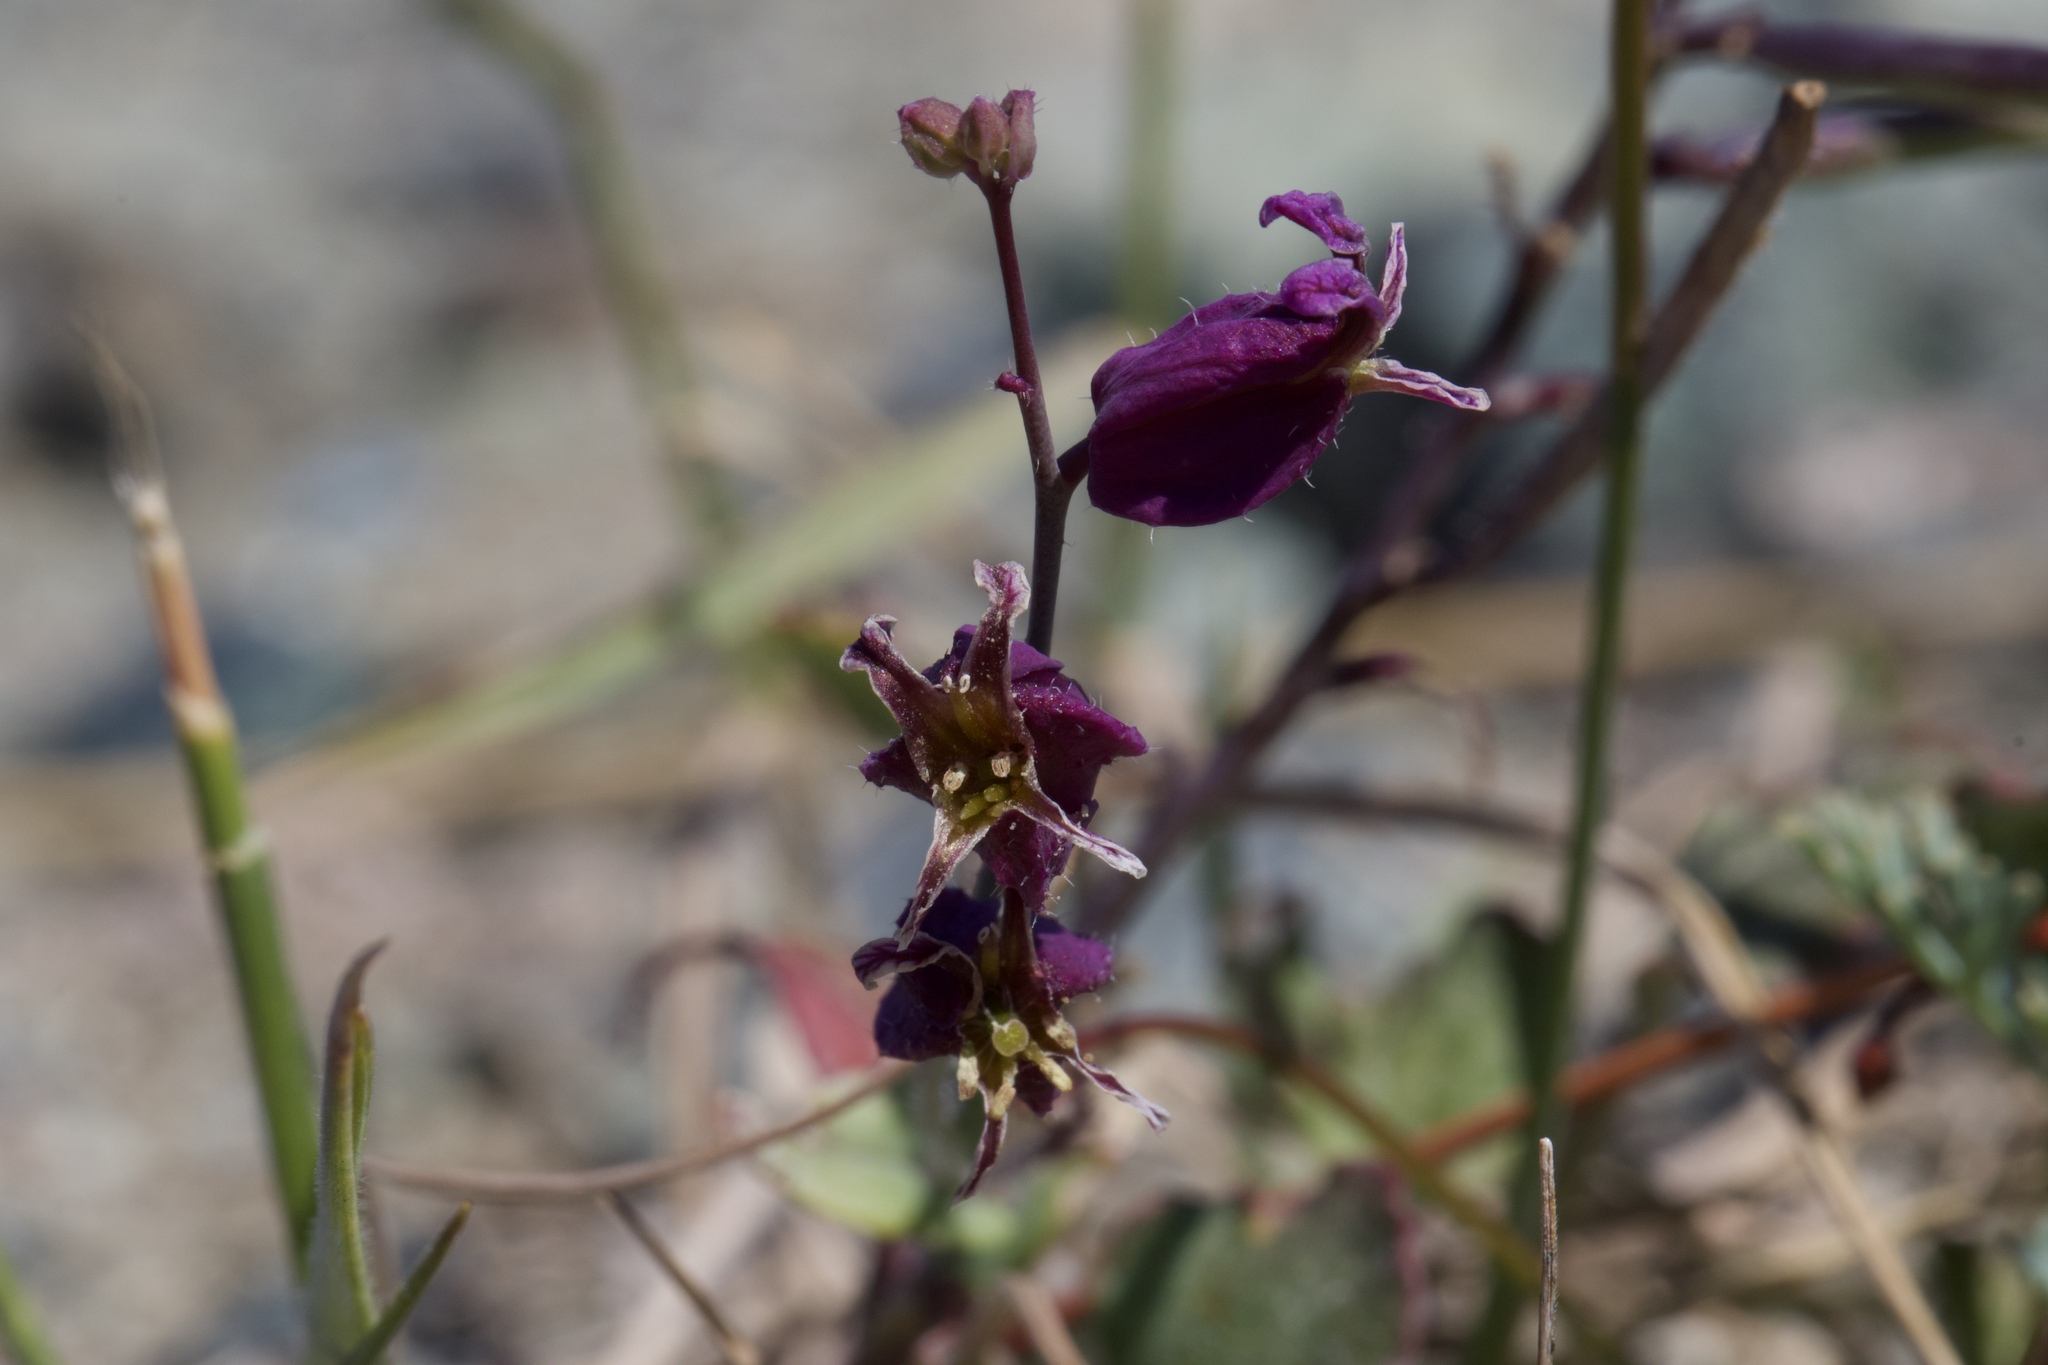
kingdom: Plantae
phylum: Tracheophyta
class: Magnoliopsida
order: Brassicales
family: Brassicaceae
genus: Streptanthus
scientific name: Streptanthus glandulosus
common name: Jewel-flower
